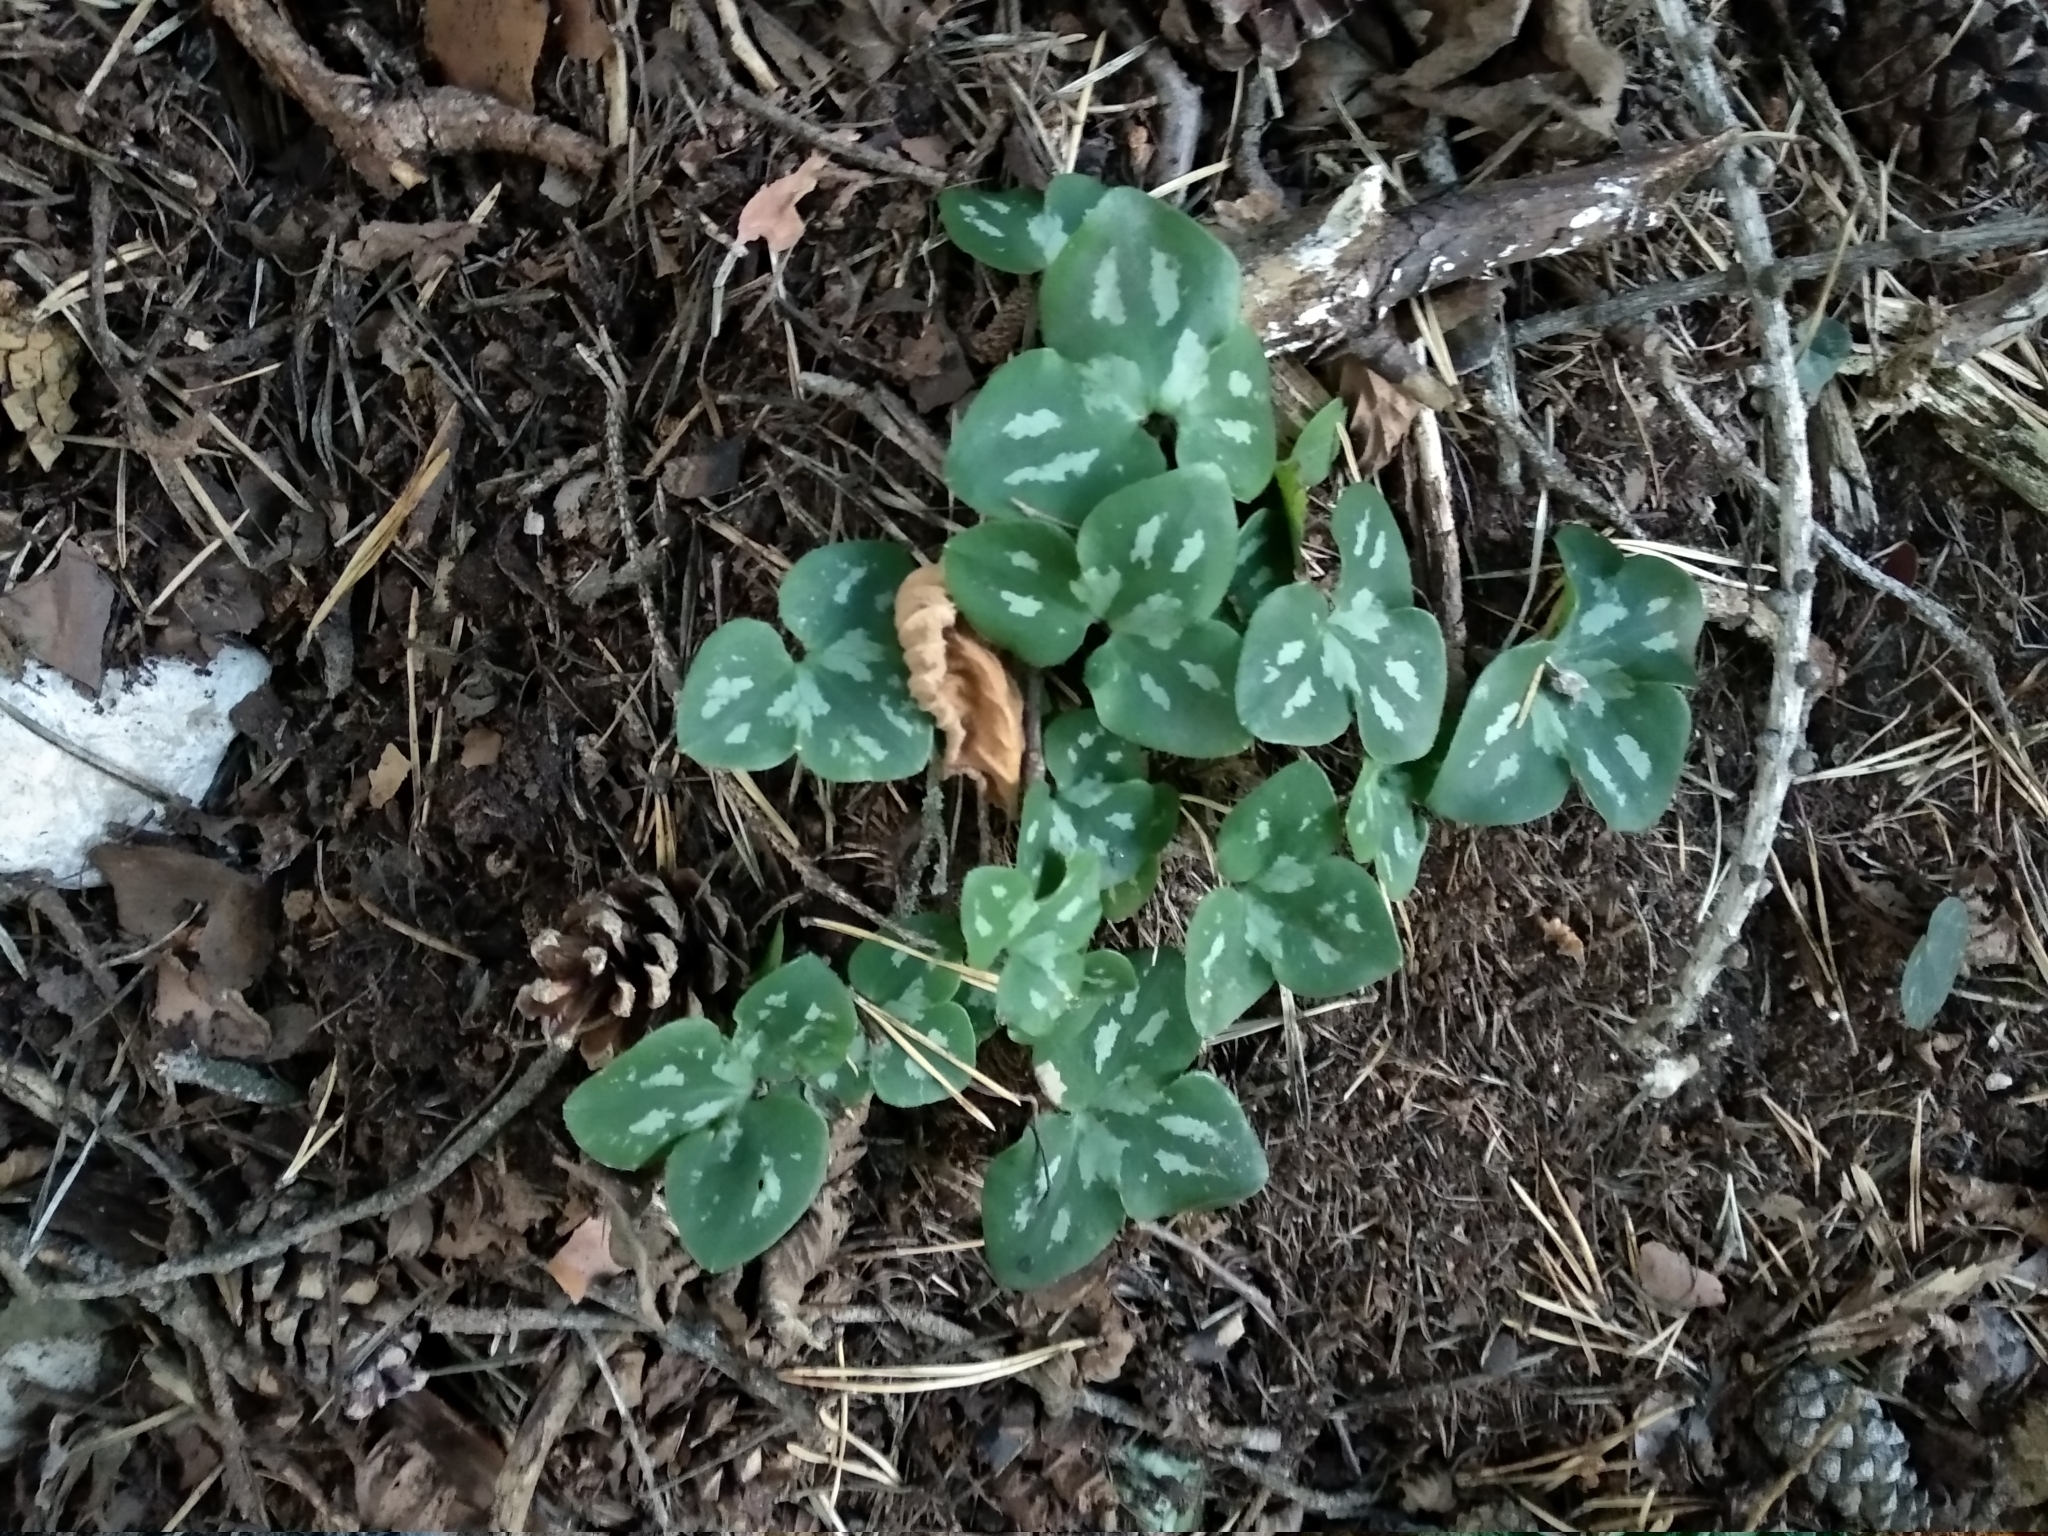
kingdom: Plantae
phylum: Tracheophyta
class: Magnoliopsida
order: Ranunculales
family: Ranunculaceae
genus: Hepatica
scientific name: Hepatica nobilis
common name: Liverleaf
